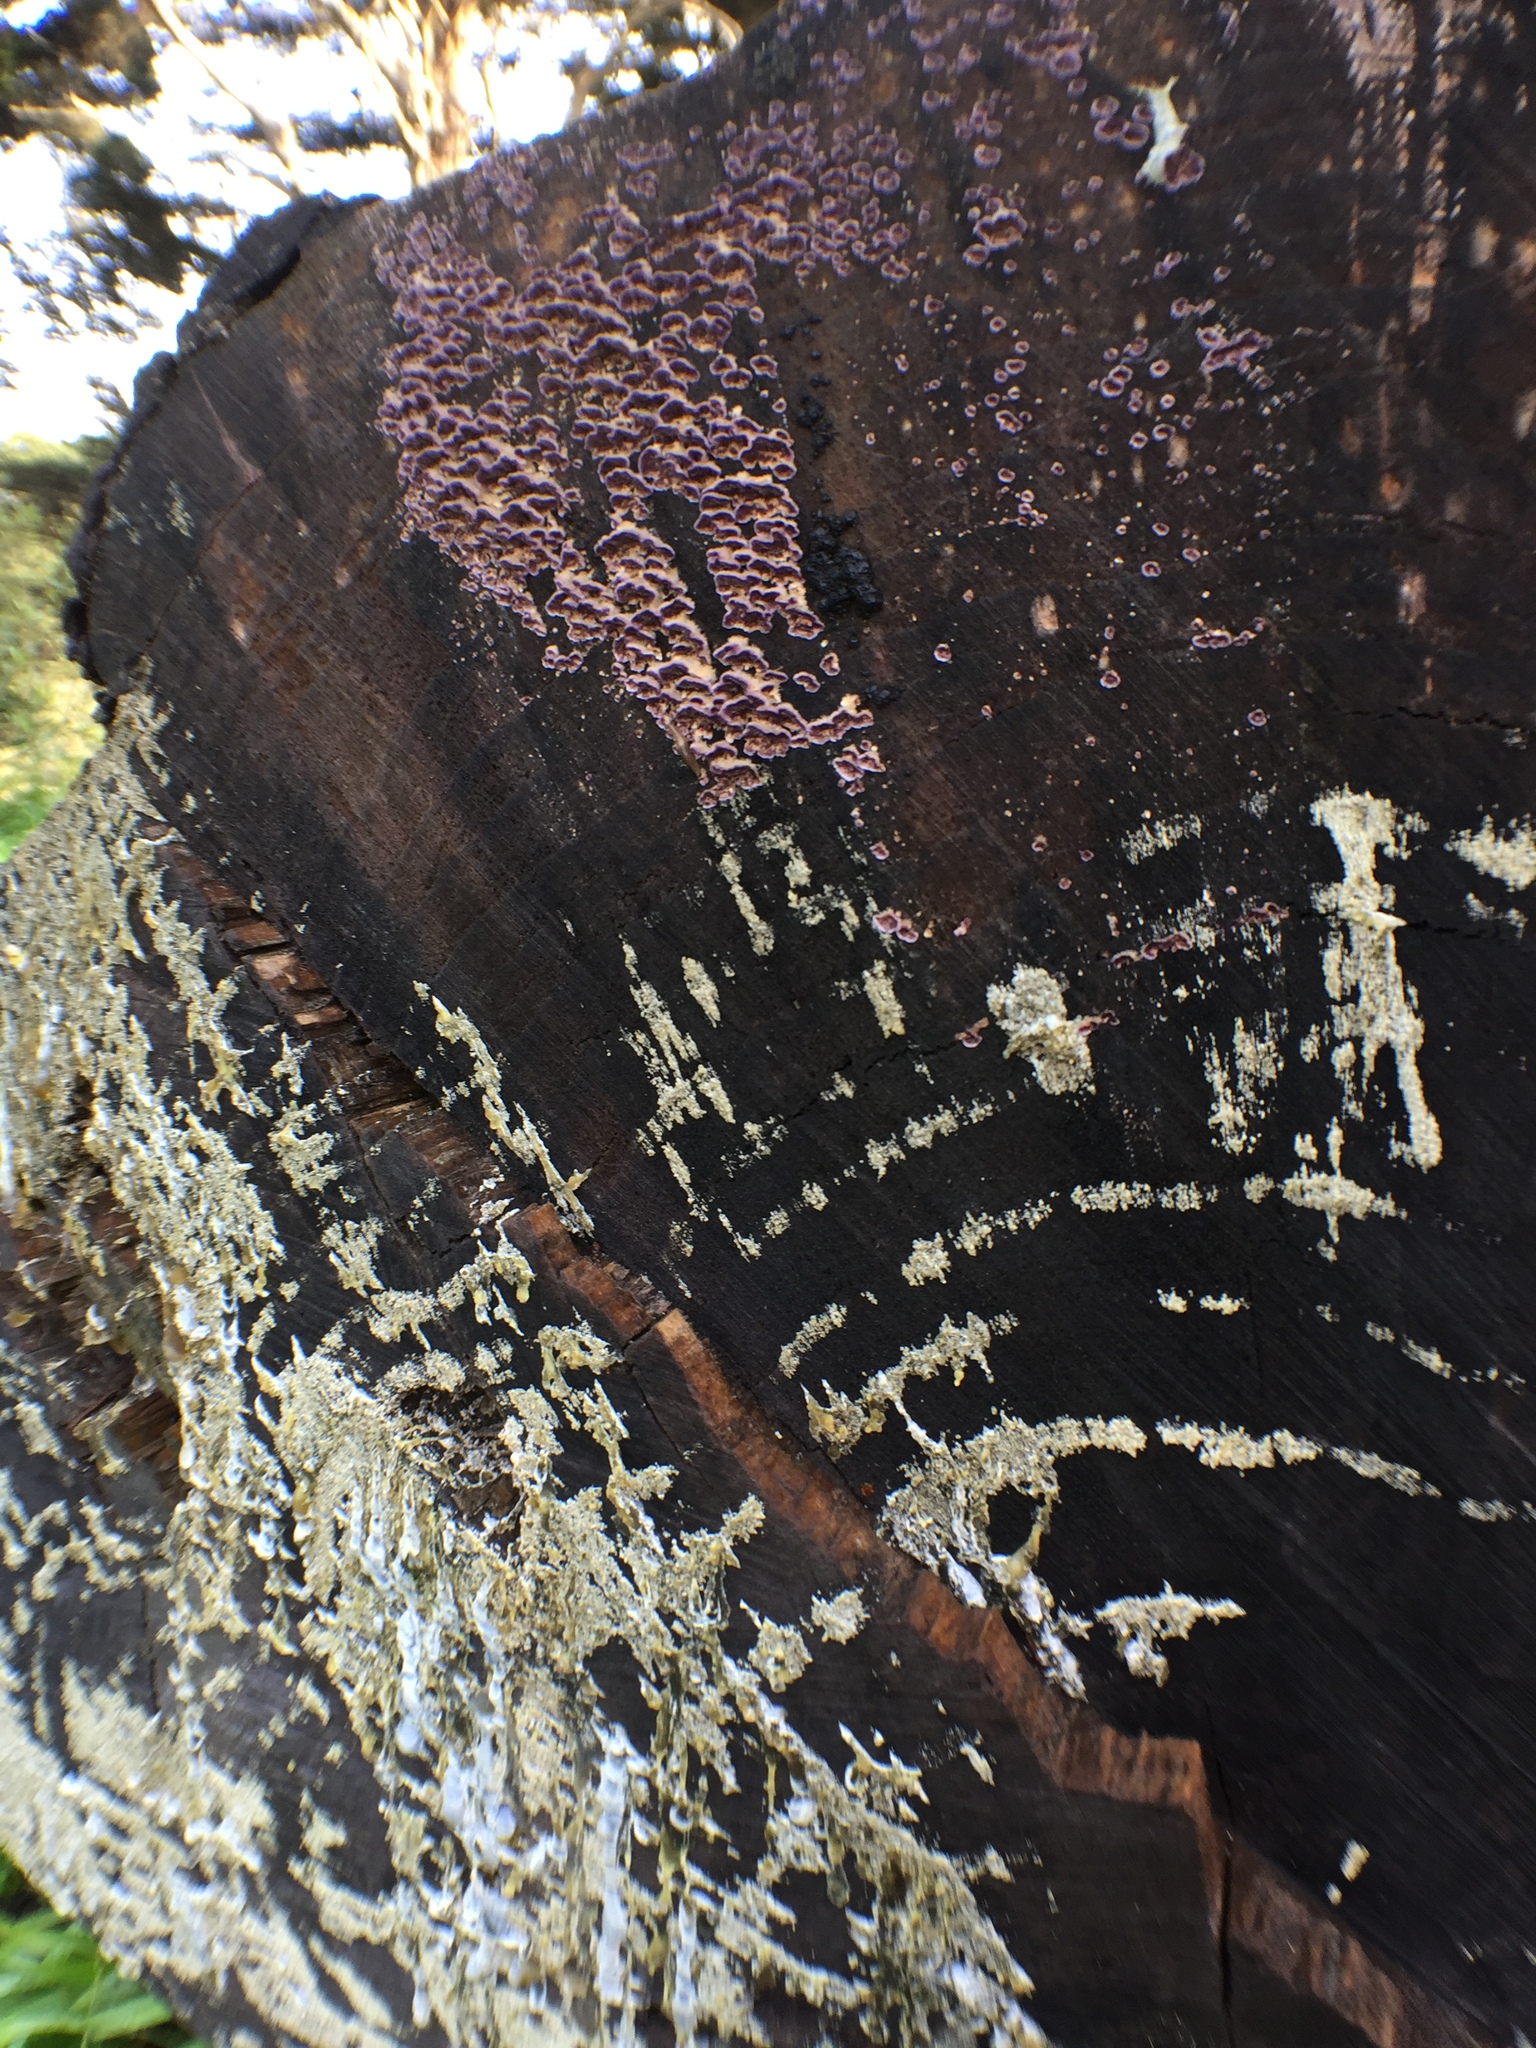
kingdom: Fungi
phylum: Basidiomycota
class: Agaricomycetes
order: Hymenochaetales
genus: Trichaptum
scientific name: Trichaptum abietinum
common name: Purplepore bracket
